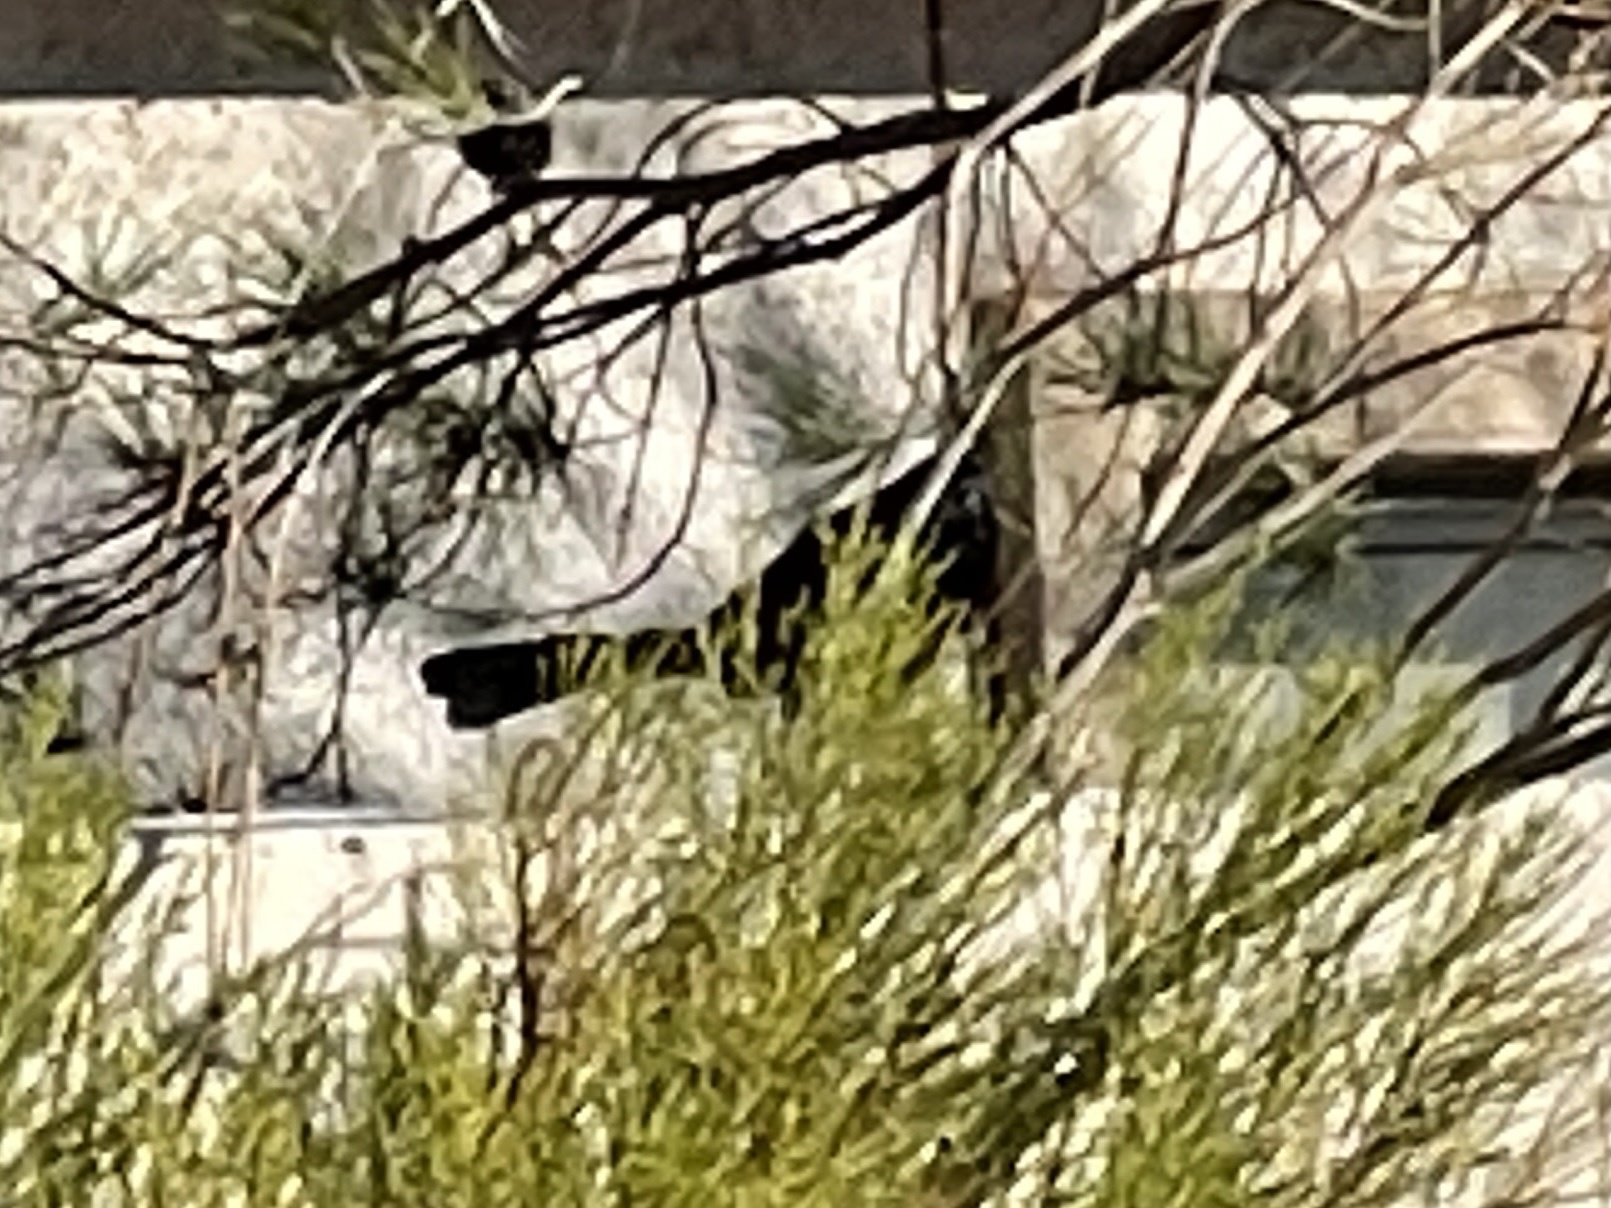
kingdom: Animalia
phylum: Chordata
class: Aves
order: Passeriformes
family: Icteridae
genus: Quiscalus
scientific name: Quiscalus mexicanus
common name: Great-tailed grackle
